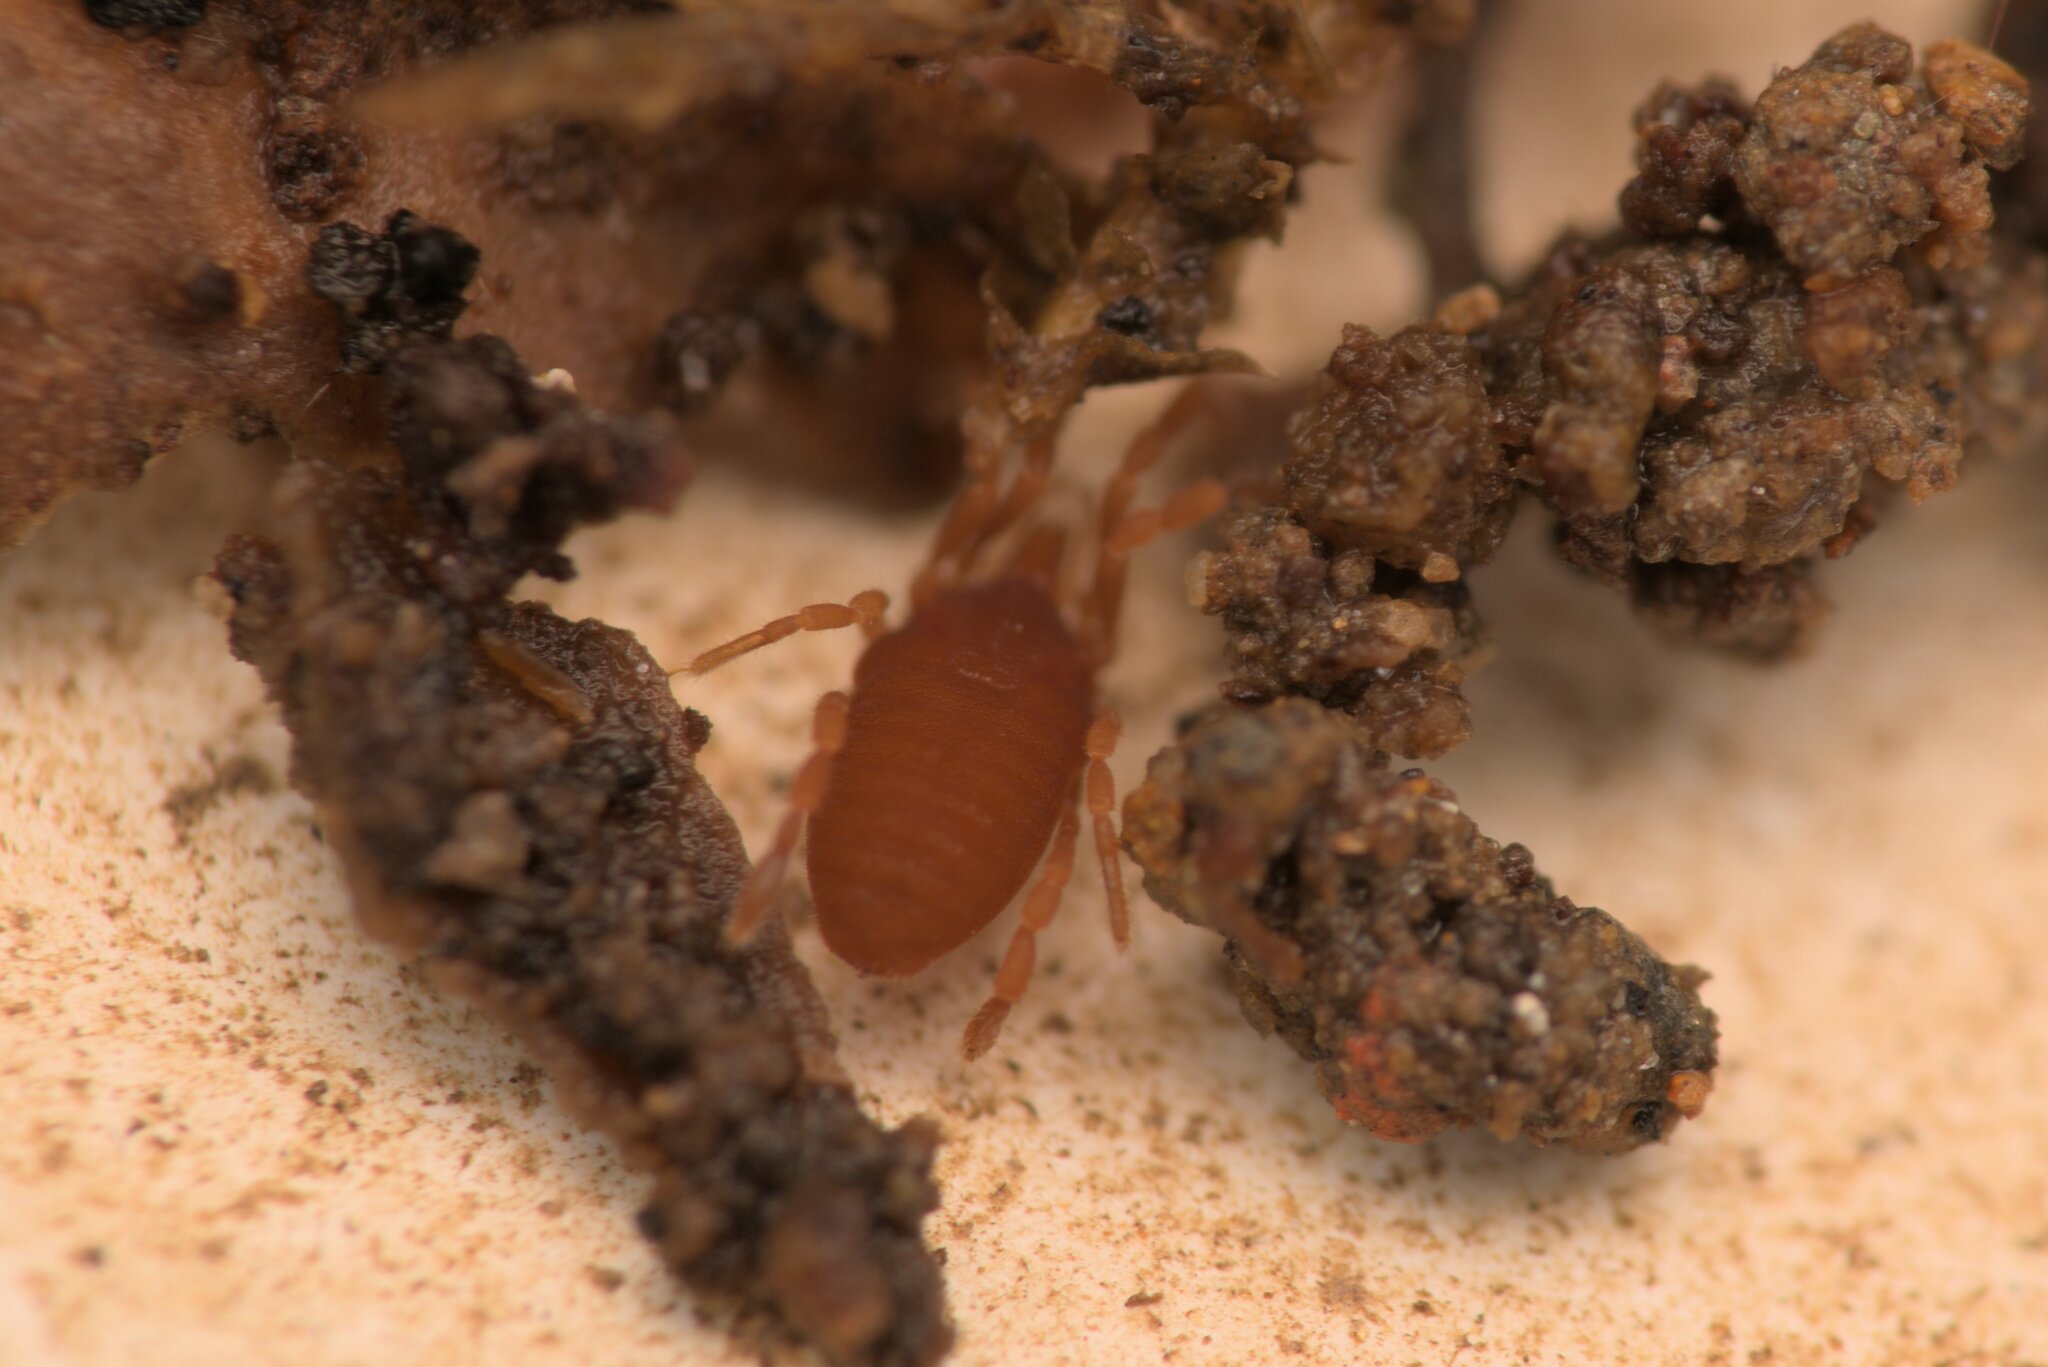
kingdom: Animalia
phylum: Arthropoda
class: Arachnida
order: Opiliones
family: Sironidae
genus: Siro
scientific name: Siro rubens
